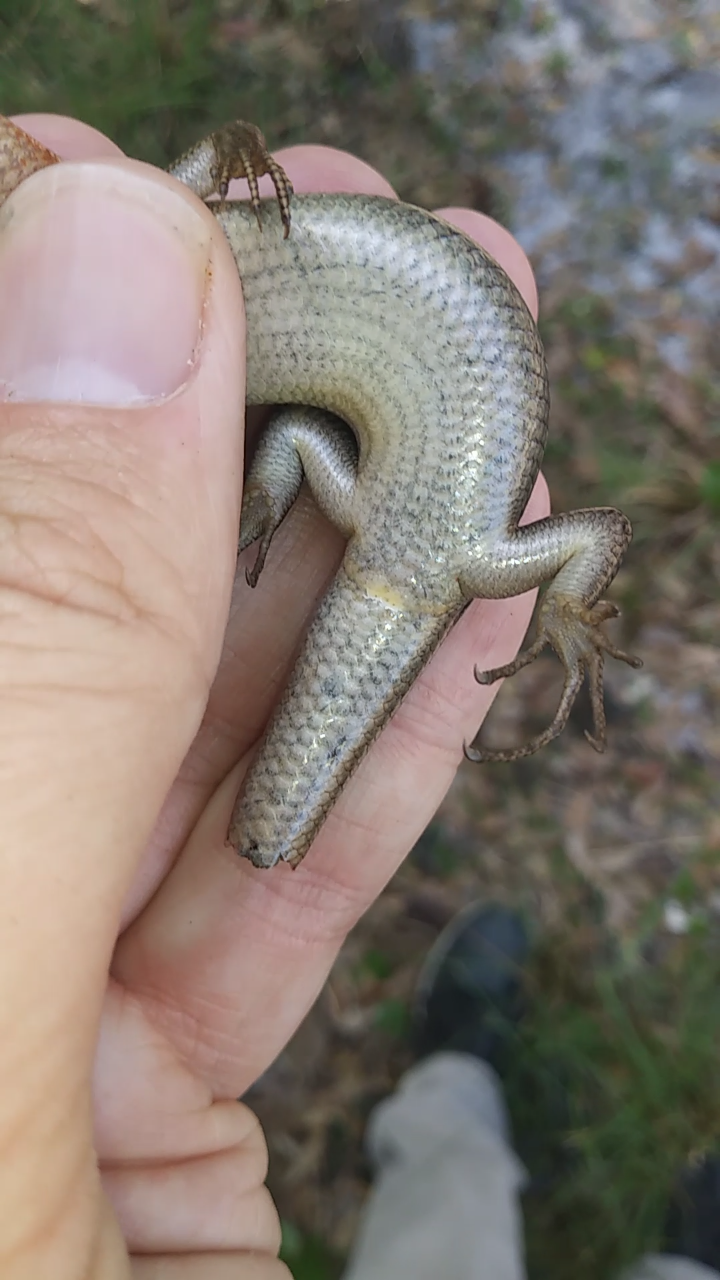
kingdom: Animalia
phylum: Chordata
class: Squamata
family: Scincidae
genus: Plestiodon
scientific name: Plestiodon inexpectatus
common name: Southeastern five-lined skink
